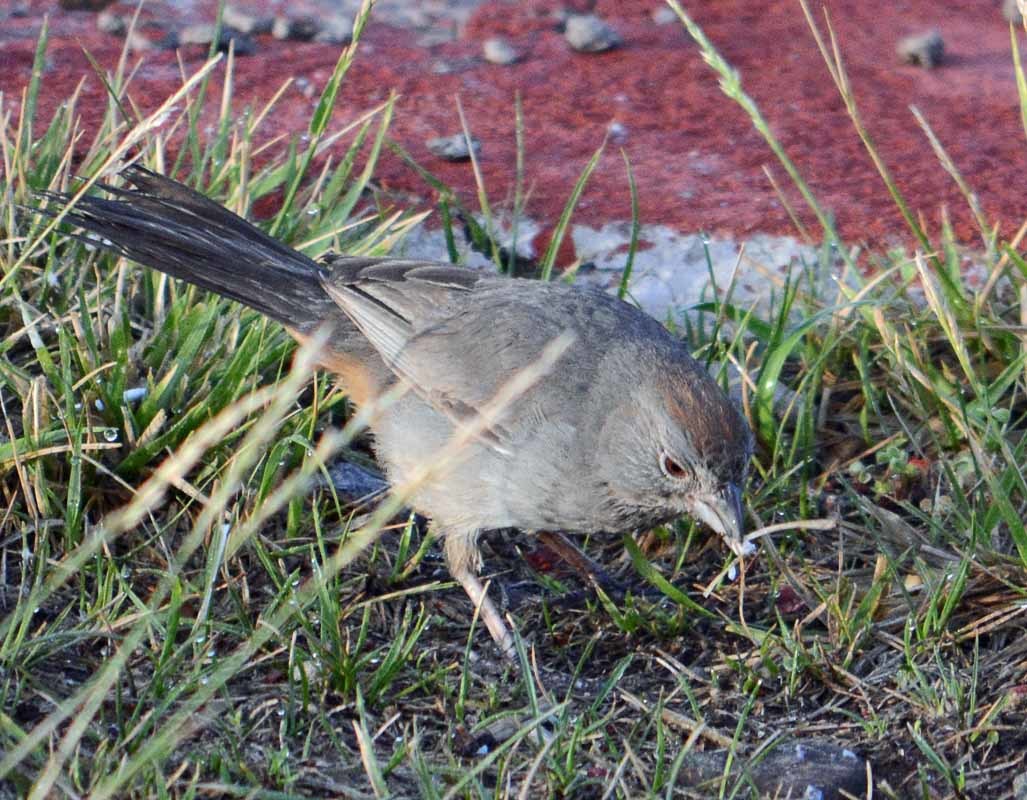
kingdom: Animalia
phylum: Chordata
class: Aves
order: Passeriformes
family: Passerellidae
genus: Melozone
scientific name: Melozone fusca
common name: Canyon towhee
